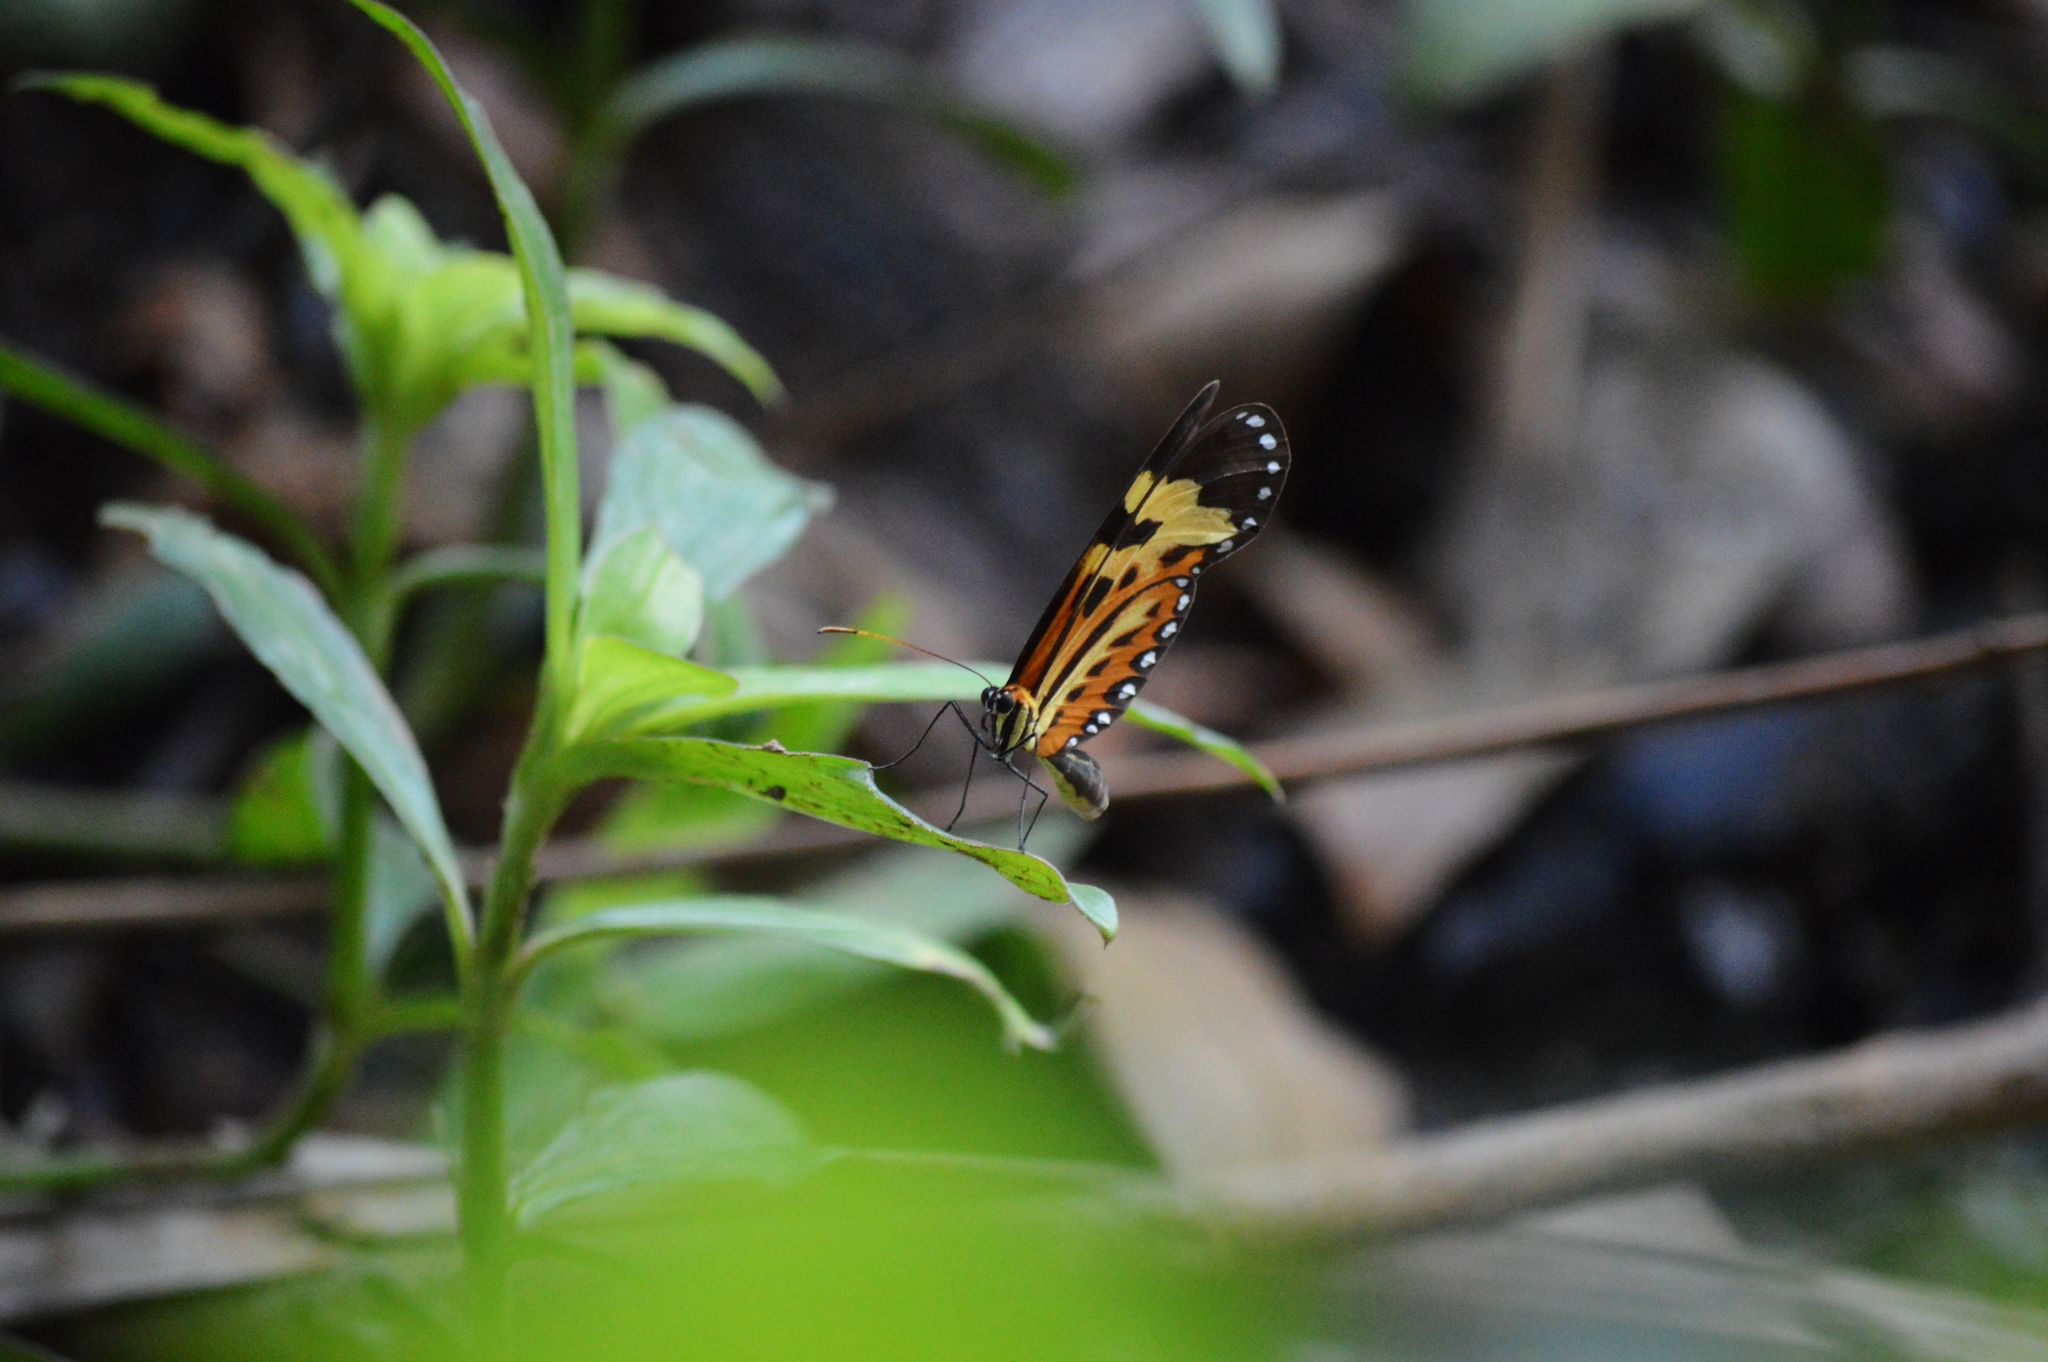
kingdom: Animalia
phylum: Arthropoda
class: Insecta
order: Lepidoptera
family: Nymphalidae
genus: Mechanitis
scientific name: Mechanitis polymnia
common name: Disturbed tigerwing
